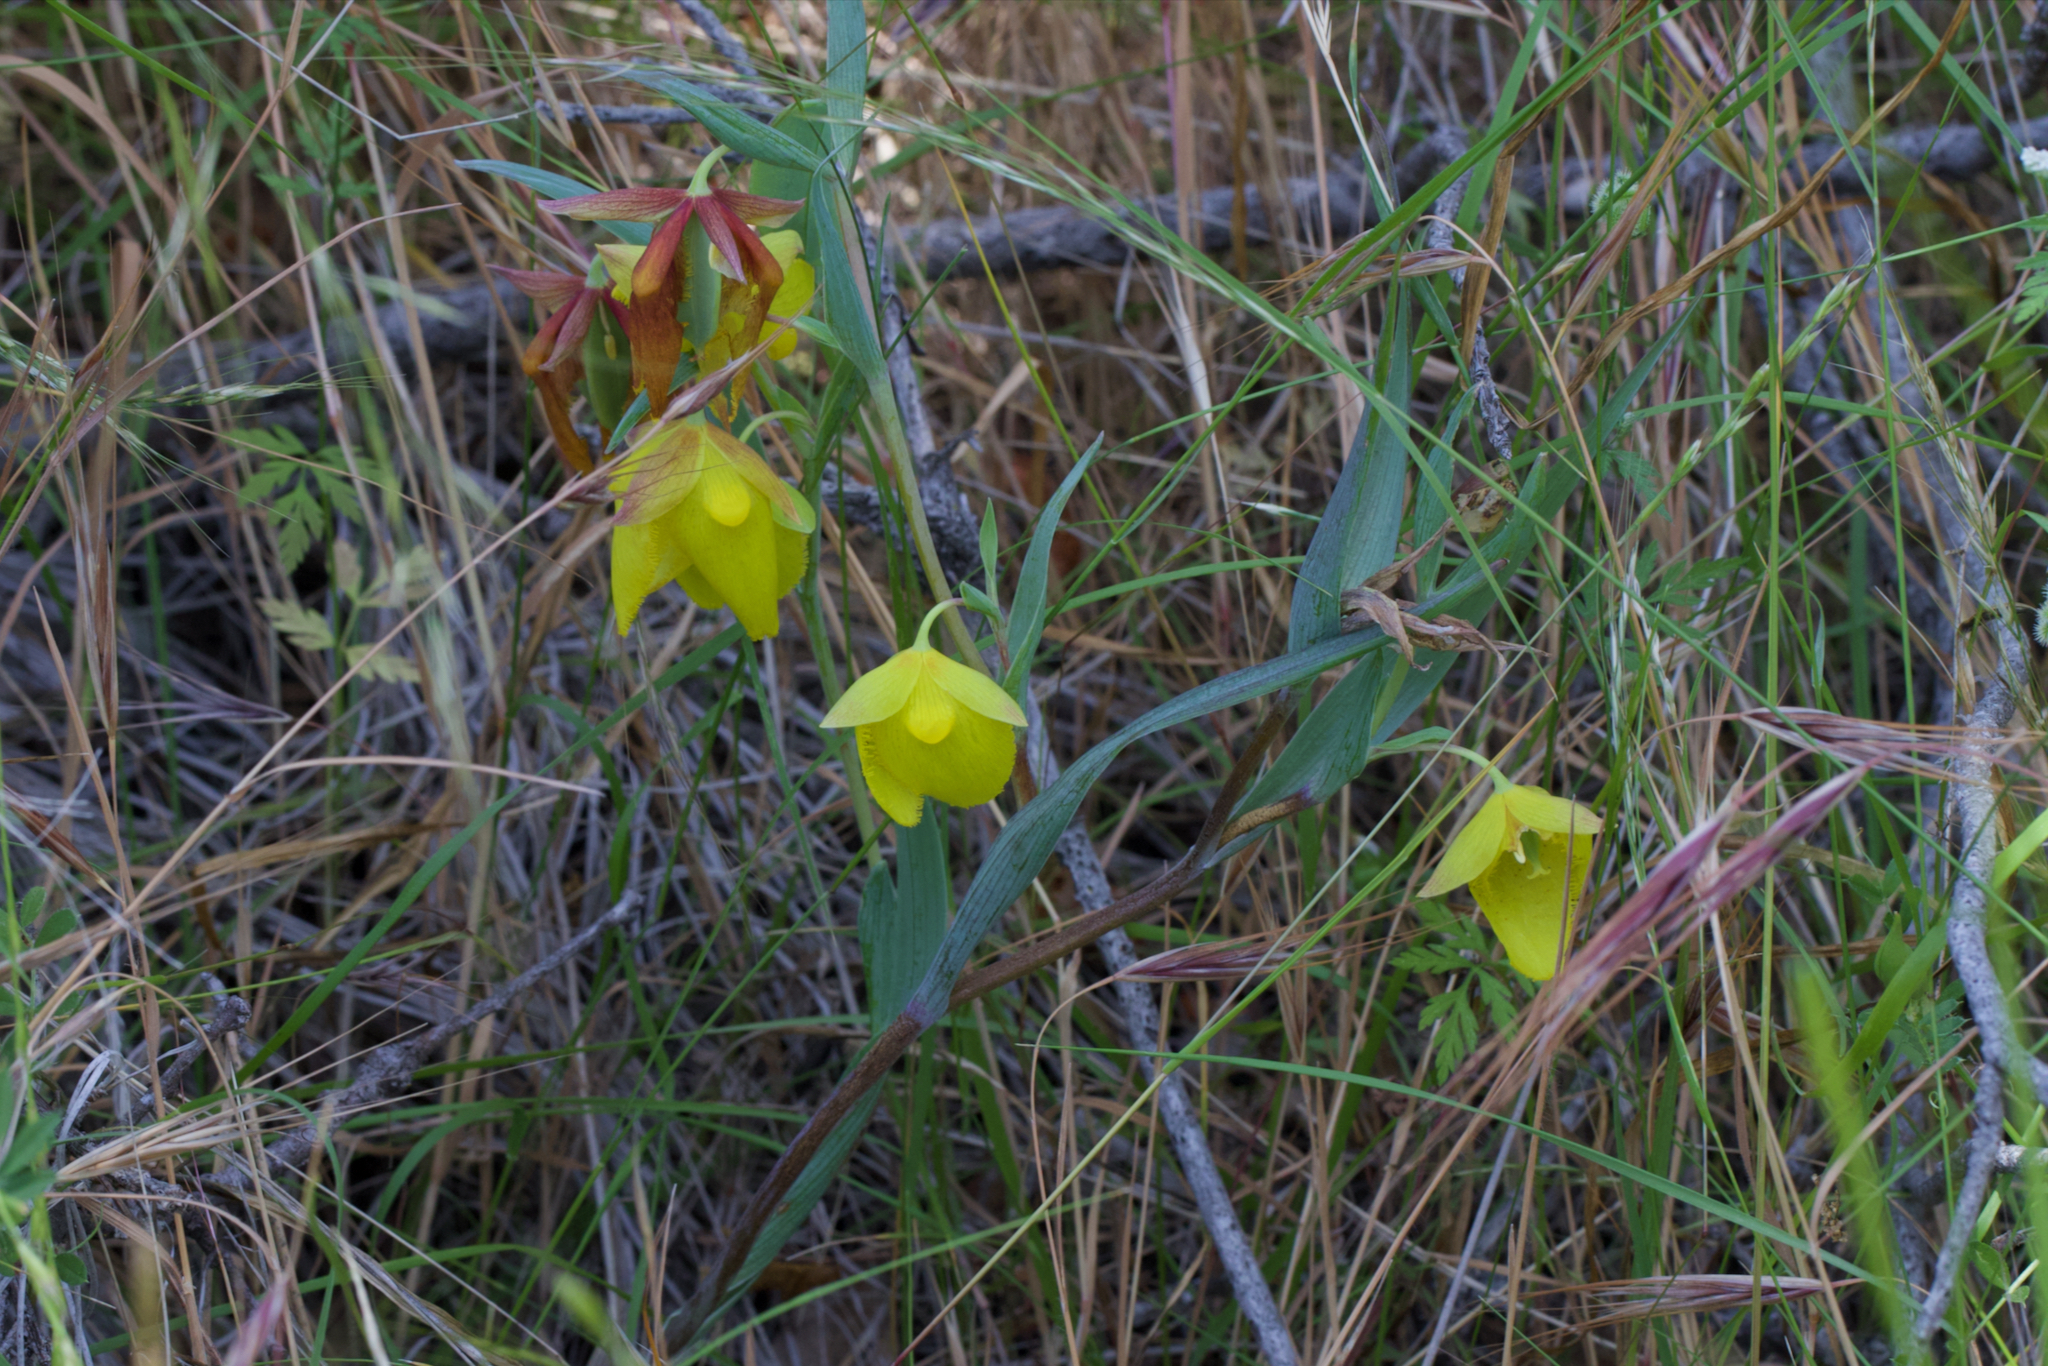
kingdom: Plantae
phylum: Tracheophyta
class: Liliopsida
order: Liliales
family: Liliaceae
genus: Calochortus
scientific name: Calochortus pulchellus
